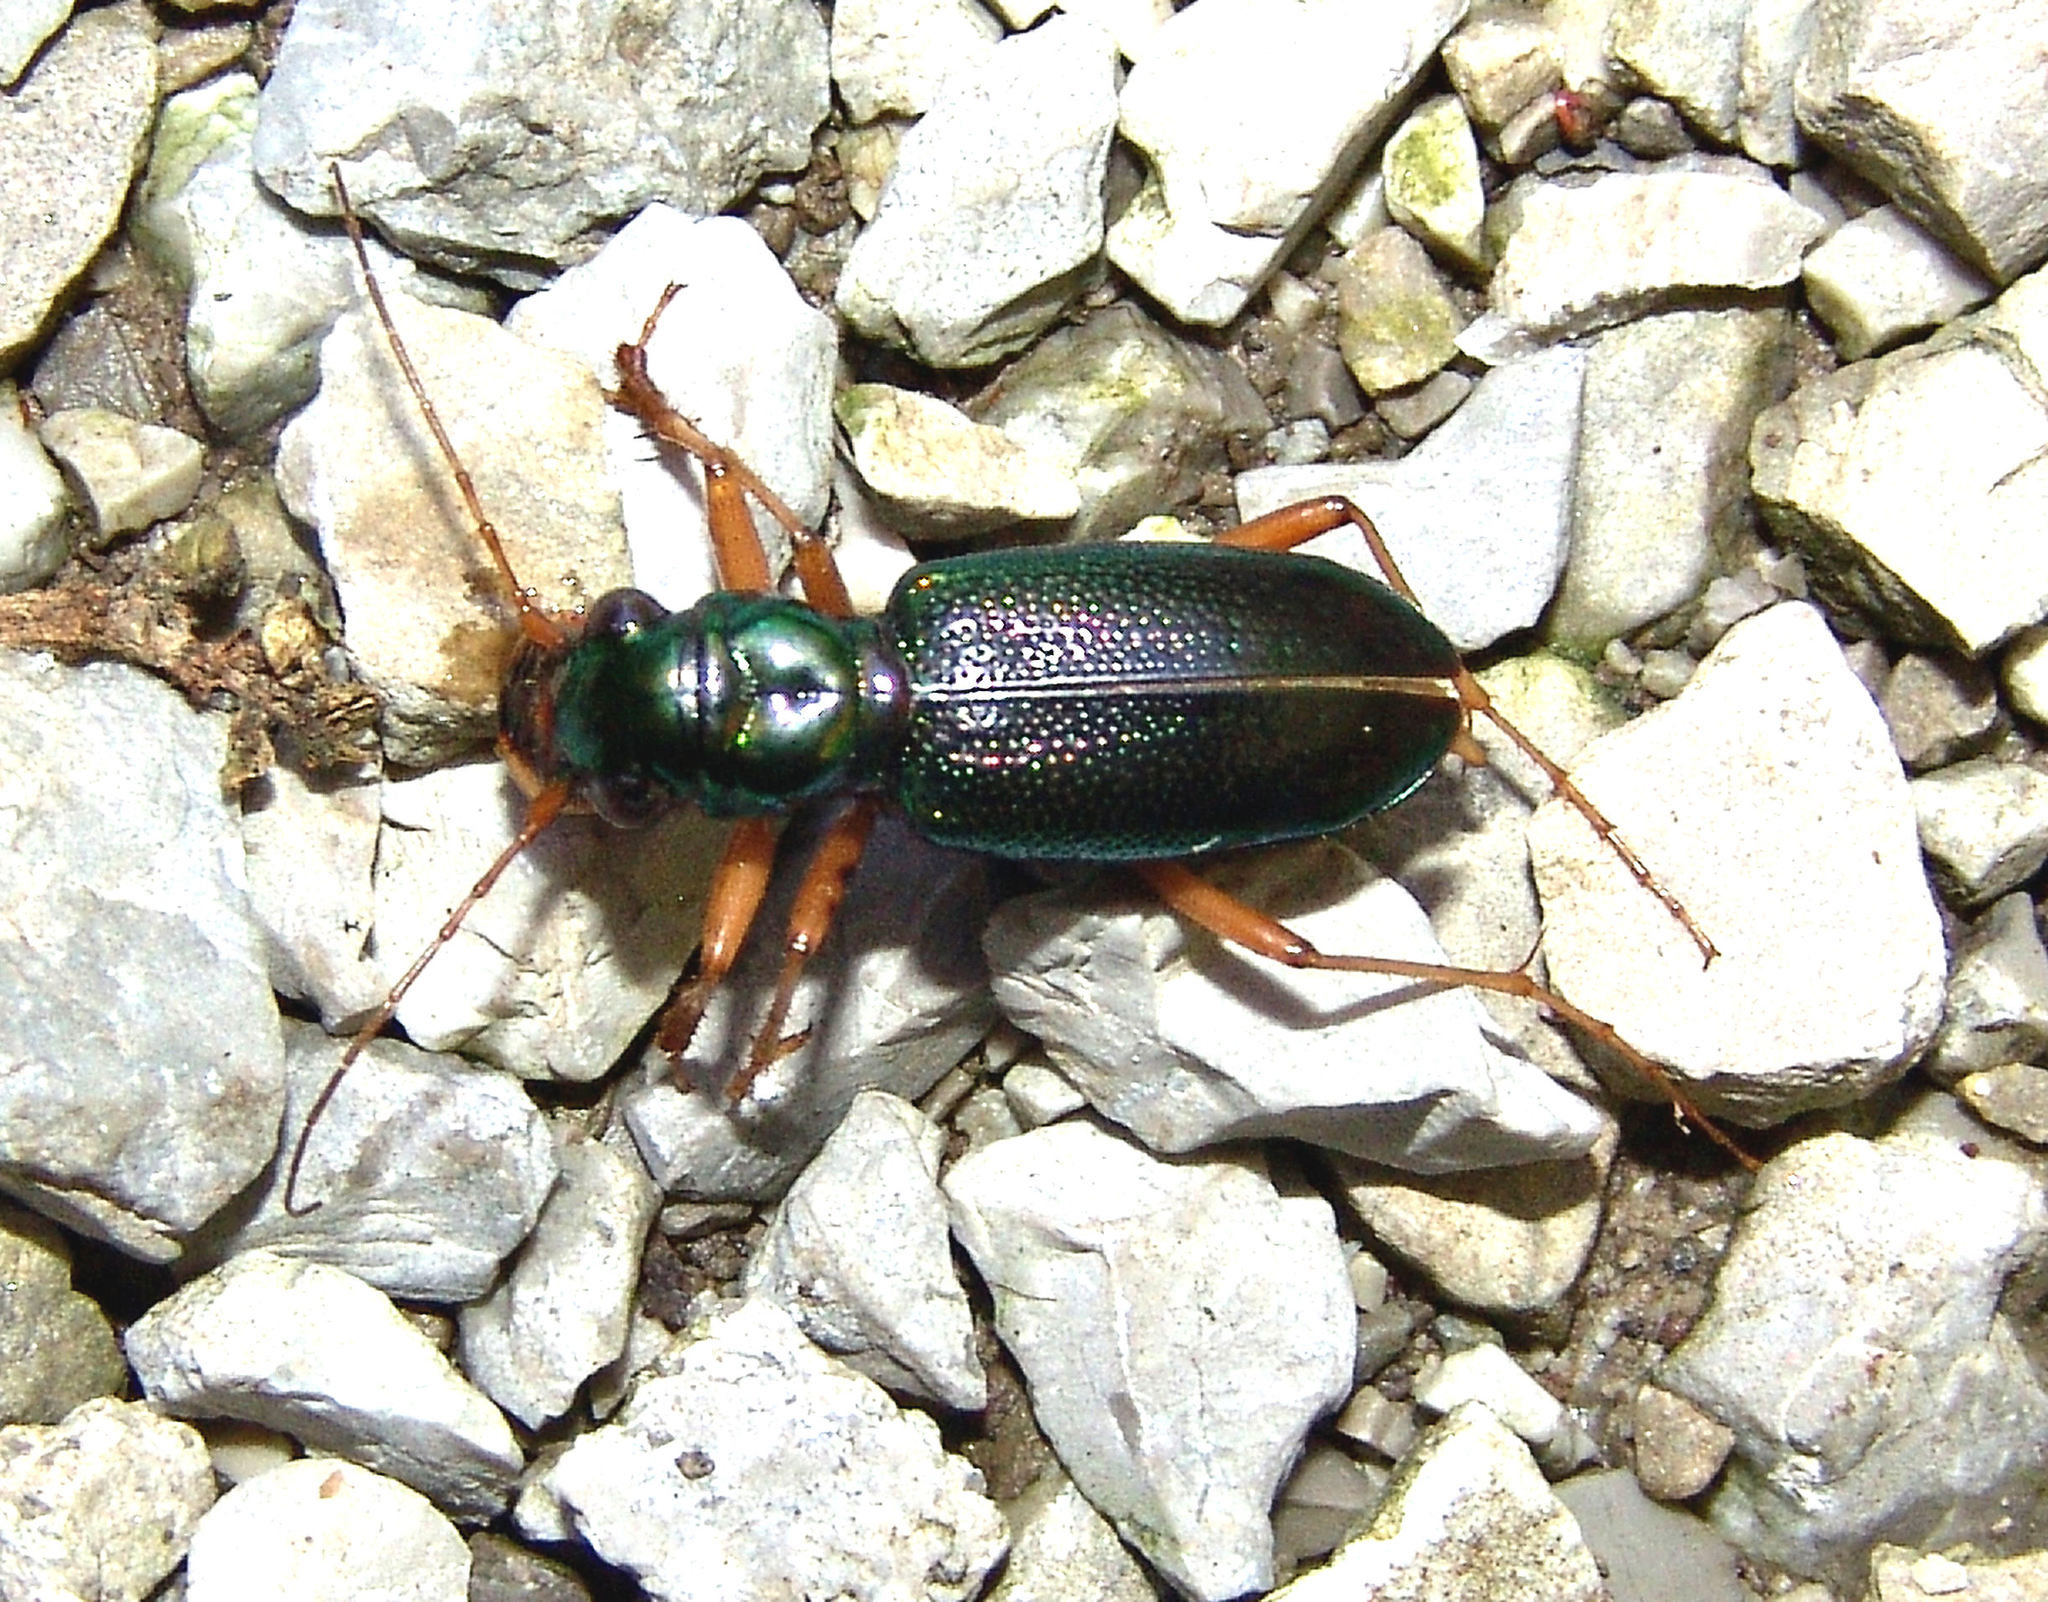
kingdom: Animalia
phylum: Arthropoda
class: Insecta
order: Coleoptera
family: Carabidae
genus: Tetracha
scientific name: Tetracha virginica
